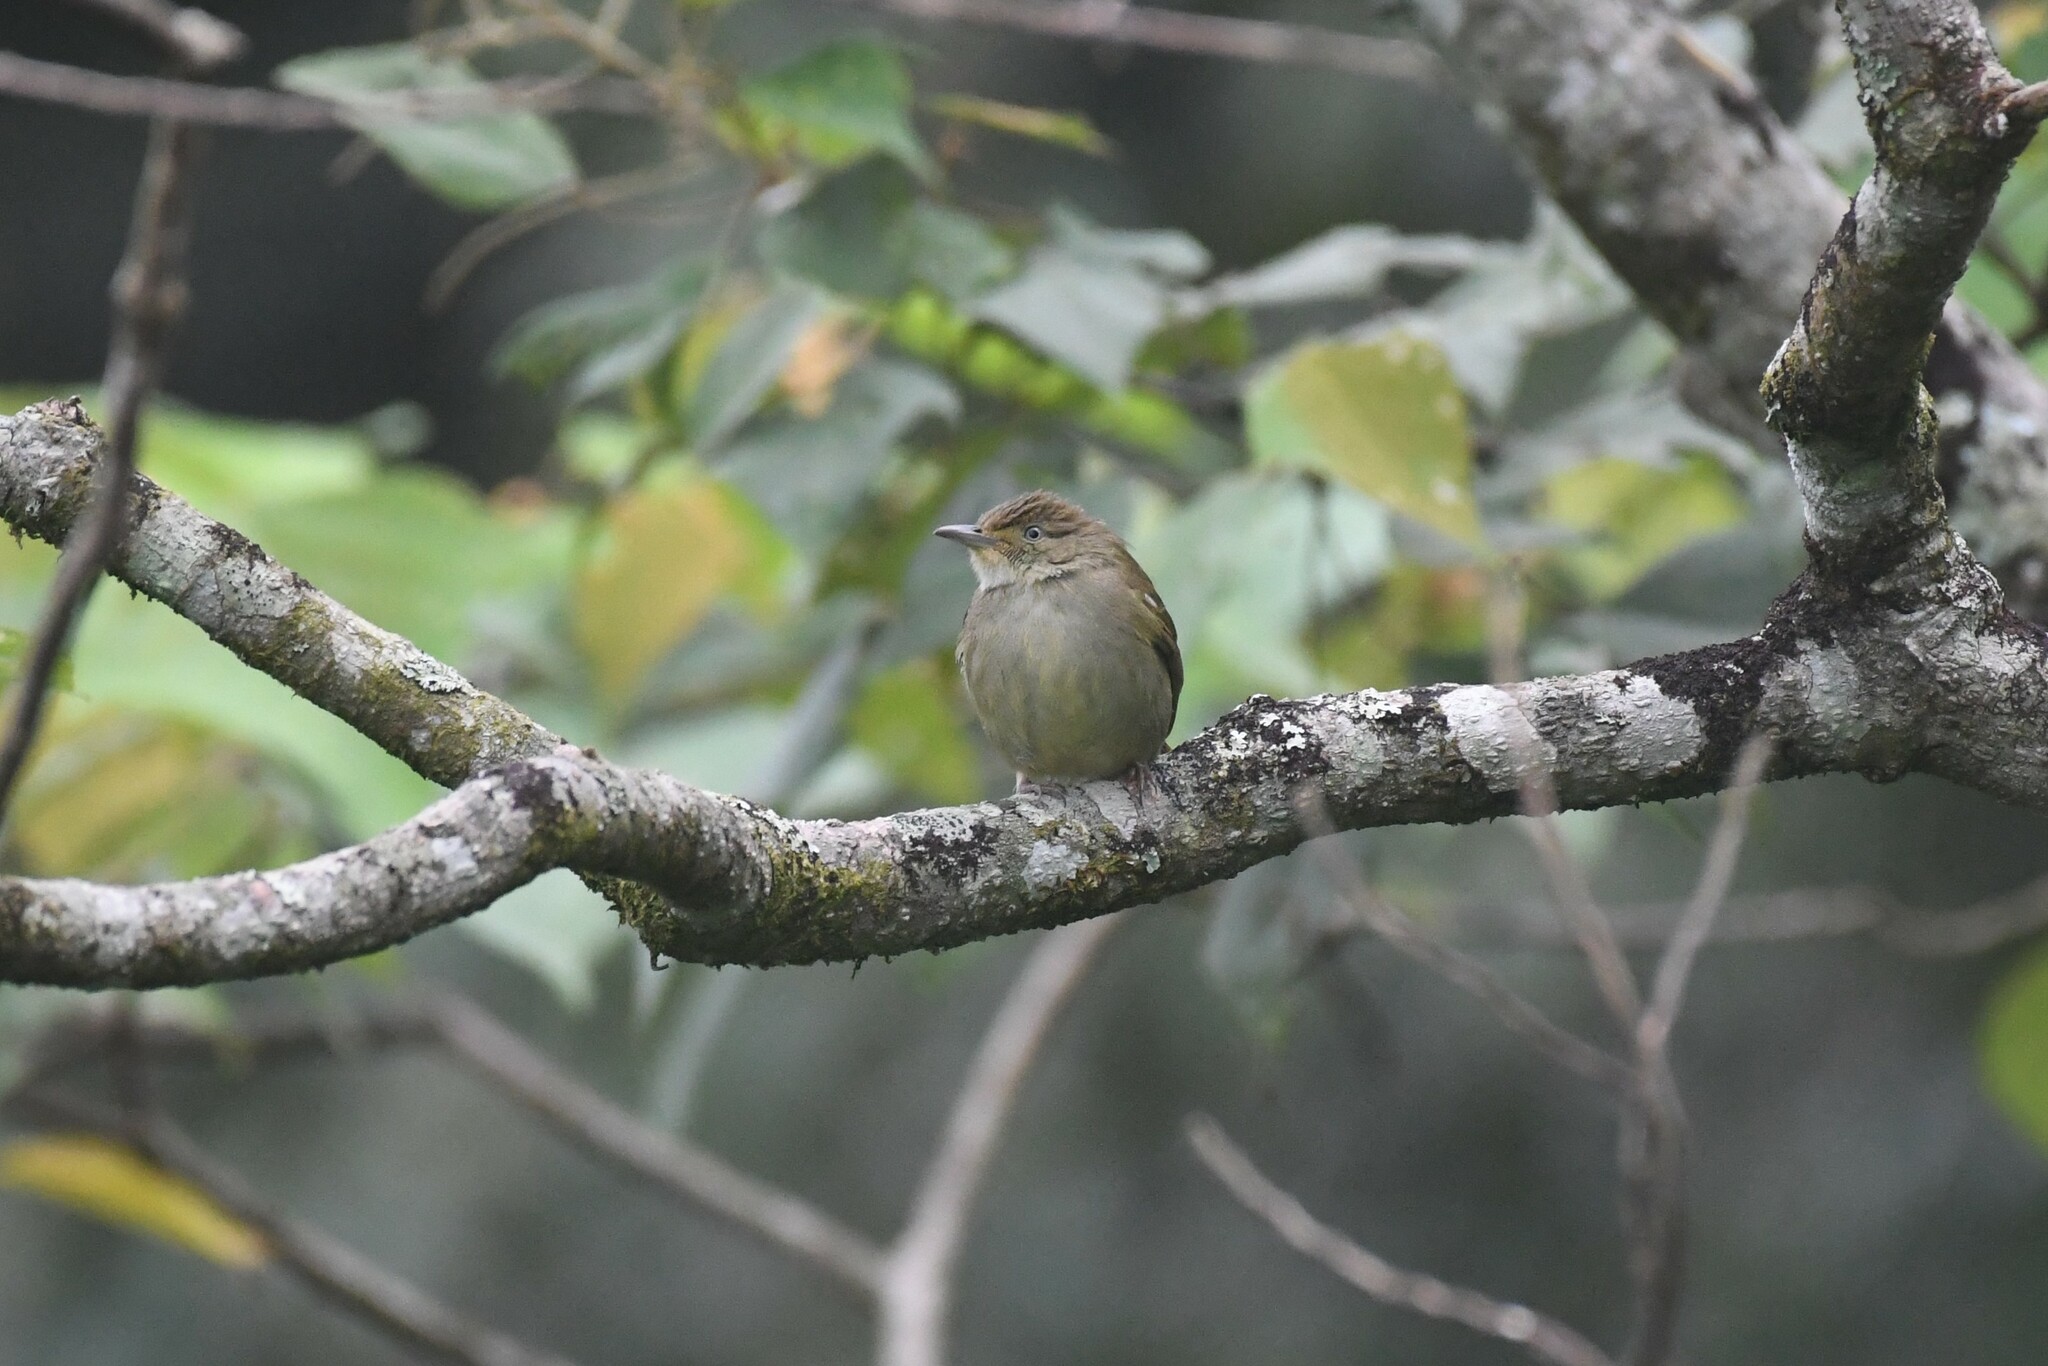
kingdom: Animalia
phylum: Chordata
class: Aves
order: Passeriformes
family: Pycnonotidae
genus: Iole
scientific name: Iole viridescens
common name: Olive bulbul
